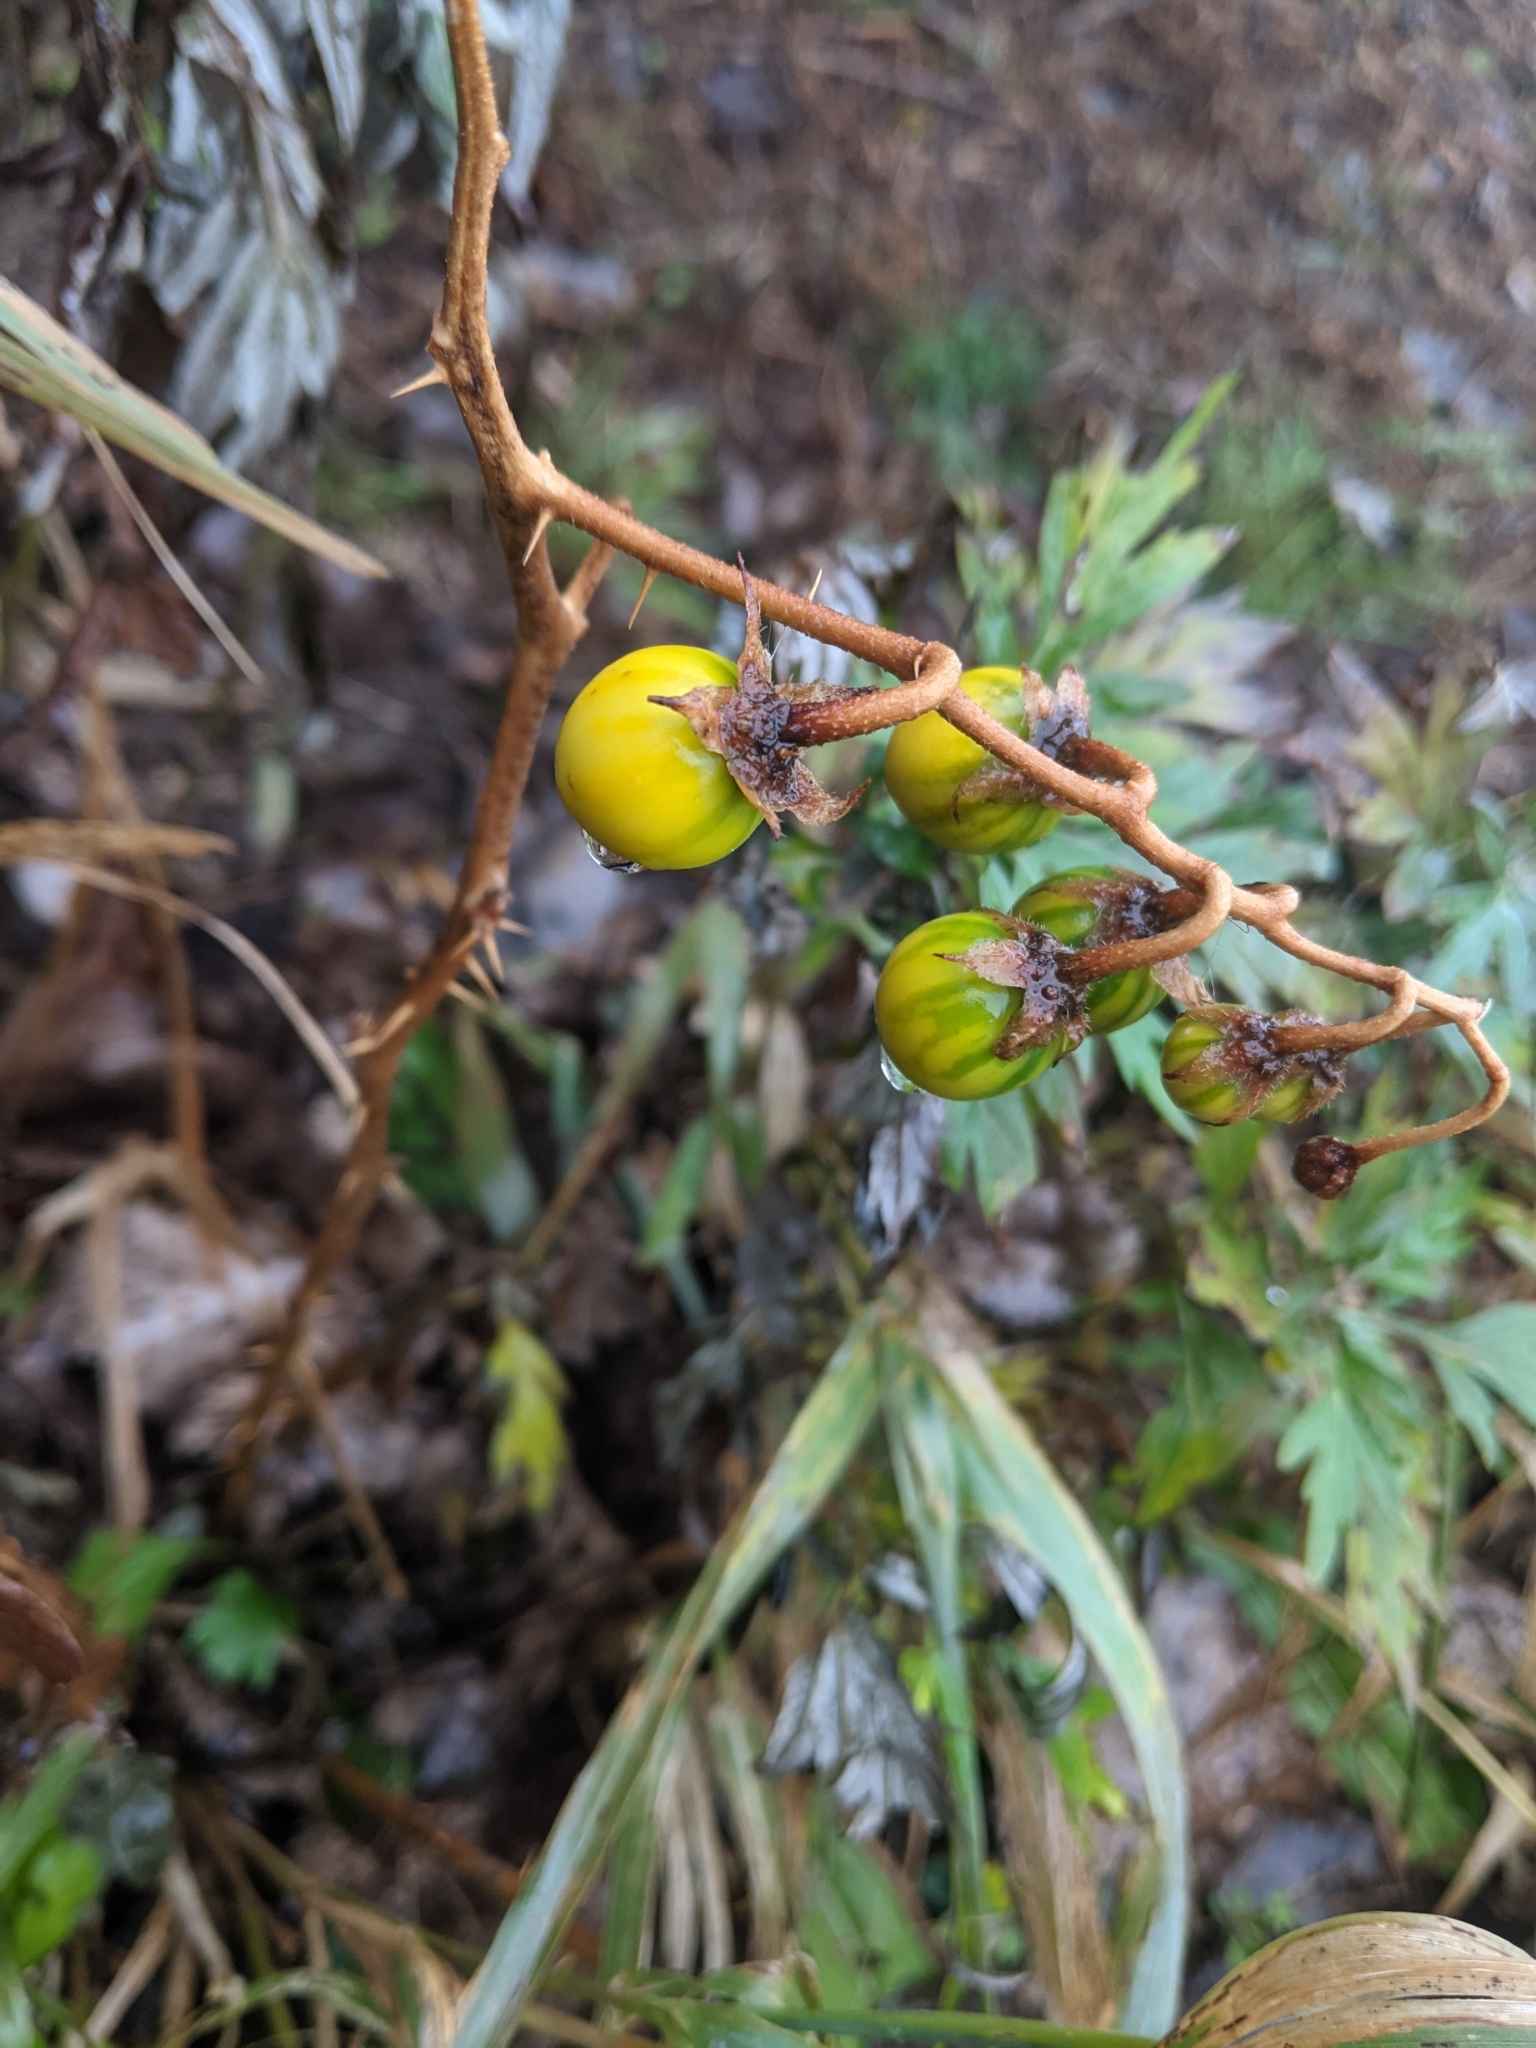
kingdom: Plantae
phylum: Tracheophyta
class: Magnoliopsida
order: Solanales
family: Solanaceae
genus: Solanum
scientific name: Solanum carolinense
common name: Horse-nettle
